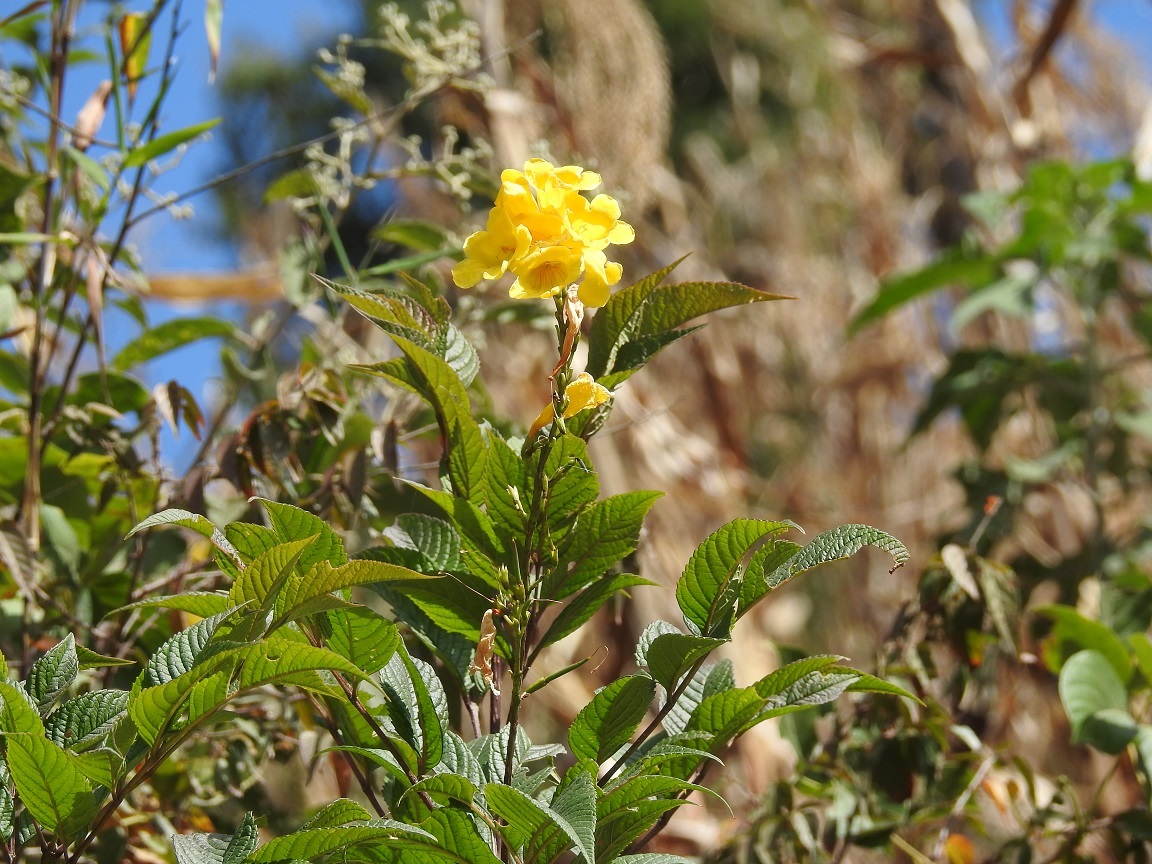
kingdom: Plantae
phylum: Tracheophyta
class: Magnoliopsida
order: Lamiales
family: Bignoniaceae
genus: Tecoma
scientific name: Tecoma stans
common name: Yellow trumpetbush
